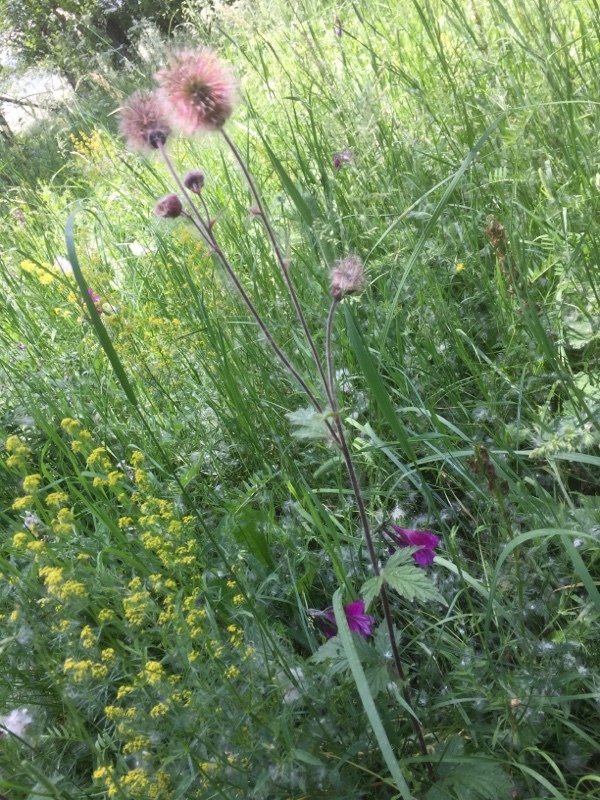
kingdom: Plantae
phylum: Tracheophyta
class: Magnoliopsida
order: Rosales
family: Rosaceae
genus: Geum
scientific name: Geum rivale
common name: Water avens
